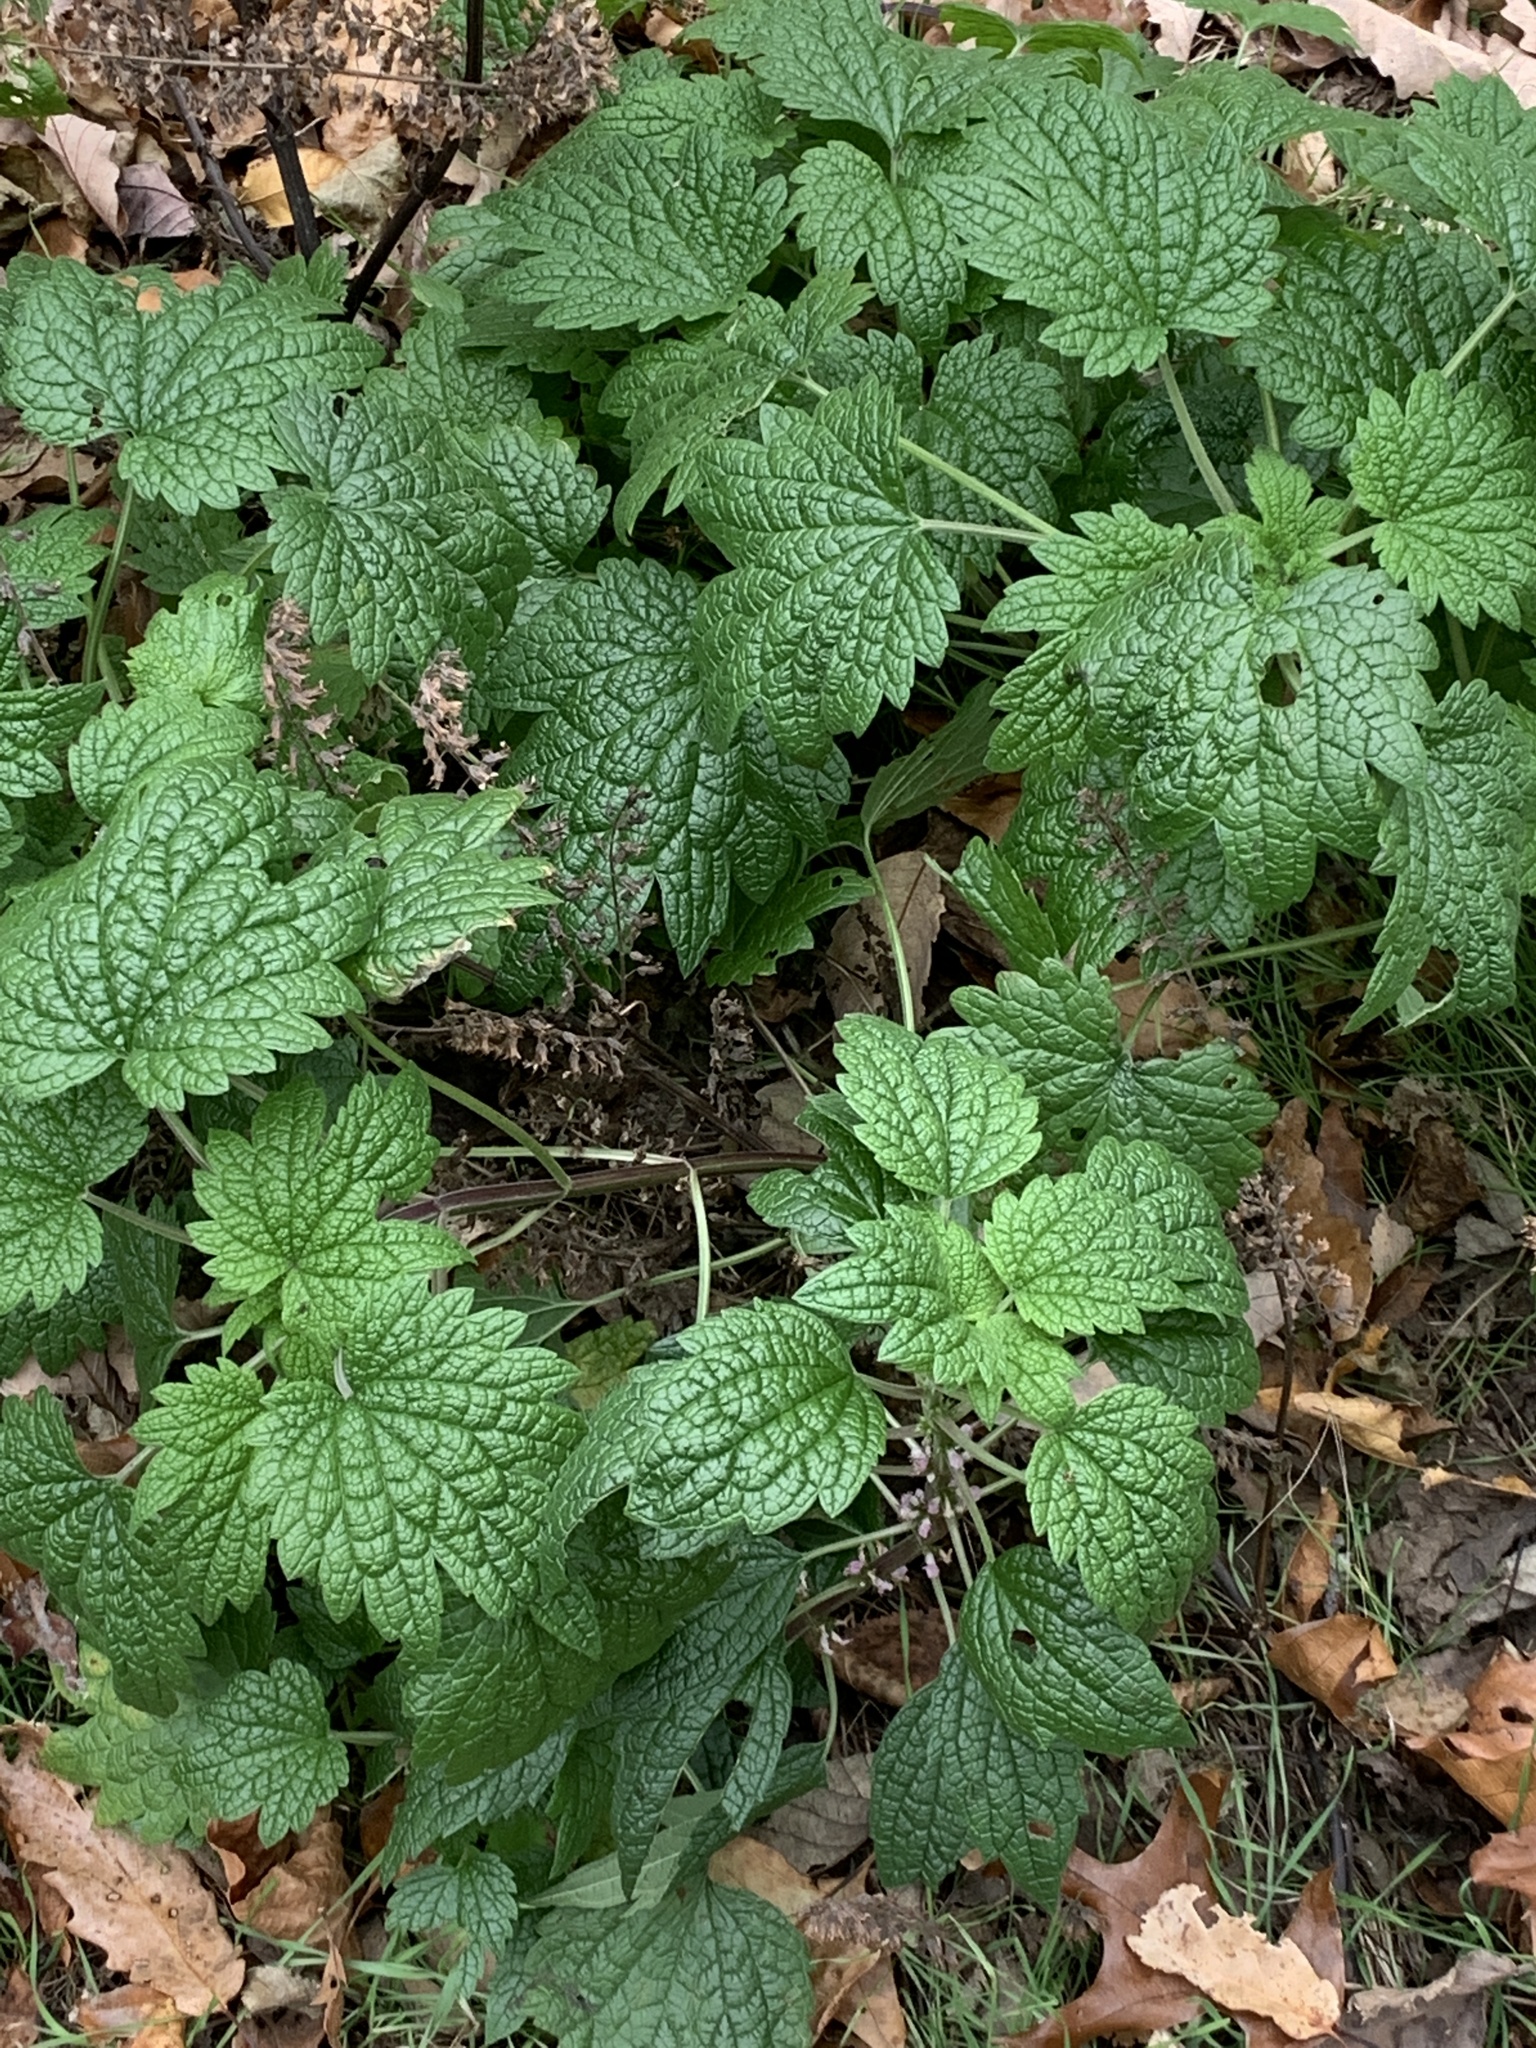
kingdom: Plantae
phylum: Tracheophyta
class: Magnoliopsida
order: Lamiales
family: Lamiaceae
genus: Leonurus
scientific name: Leonurus cardiaca
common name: Motherwort
